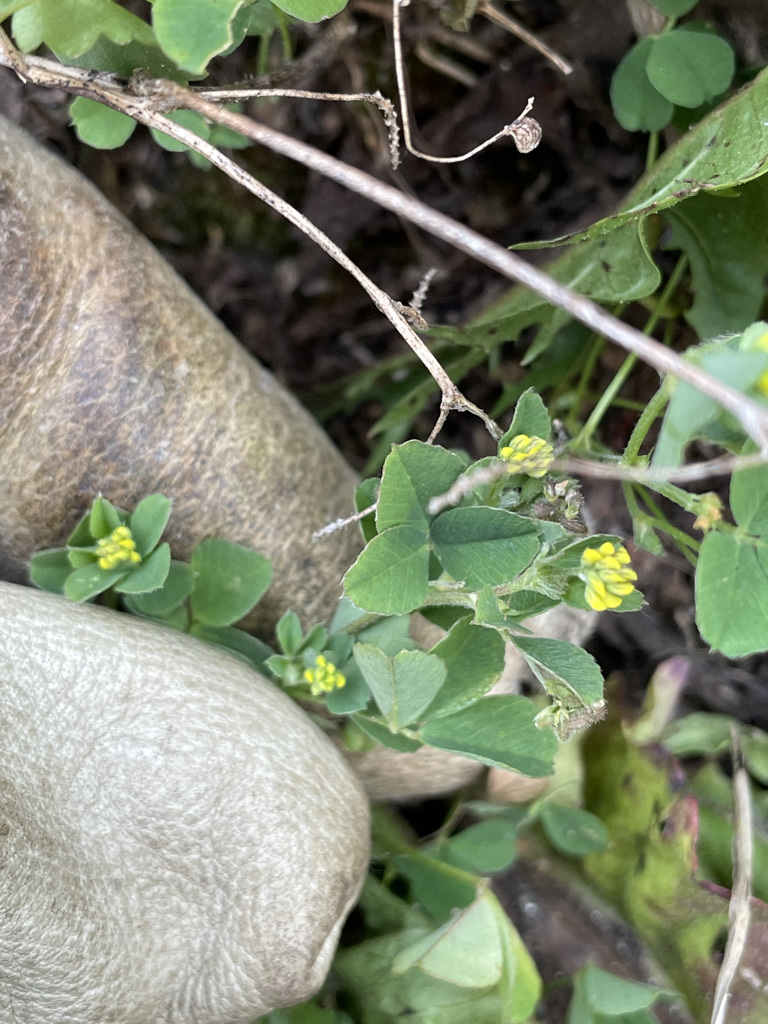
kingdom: Plantae
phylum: Tracheophyta
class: Magnoliopsida
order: Fabales
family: Fabaceae
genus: Medicago
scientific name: Medicago lupulina
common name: Black medick
